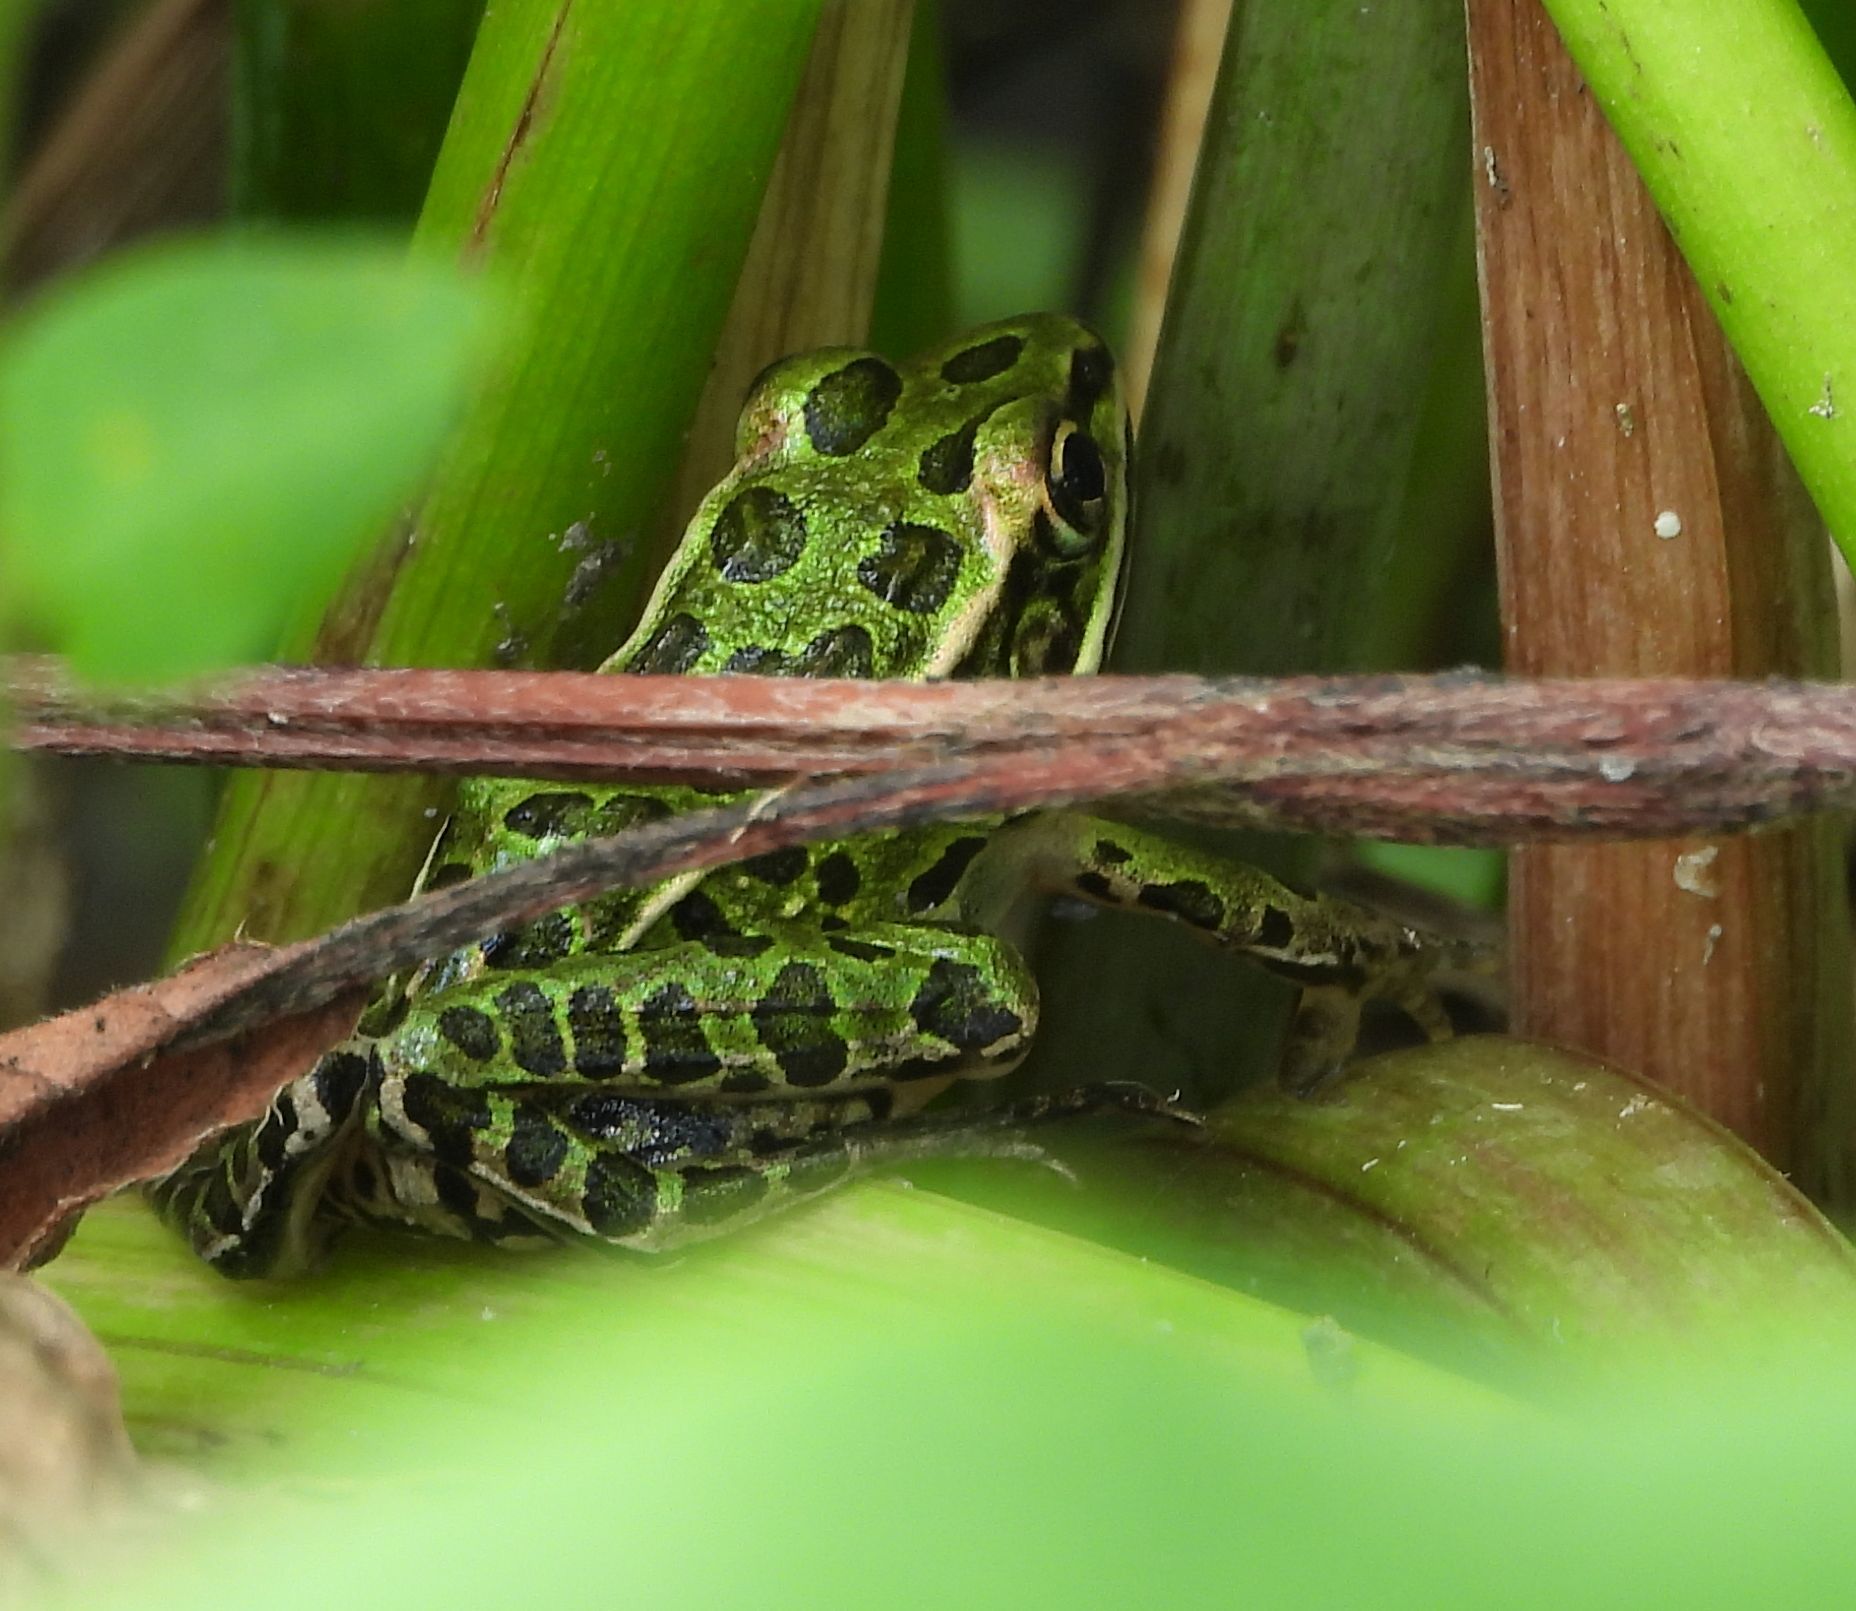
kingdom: Animalia
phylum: Chordata
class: Amphibia
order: Anura
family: Ranidae
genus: Lithobates
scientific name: Lithobates pipiens
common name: Northern leopard frog
